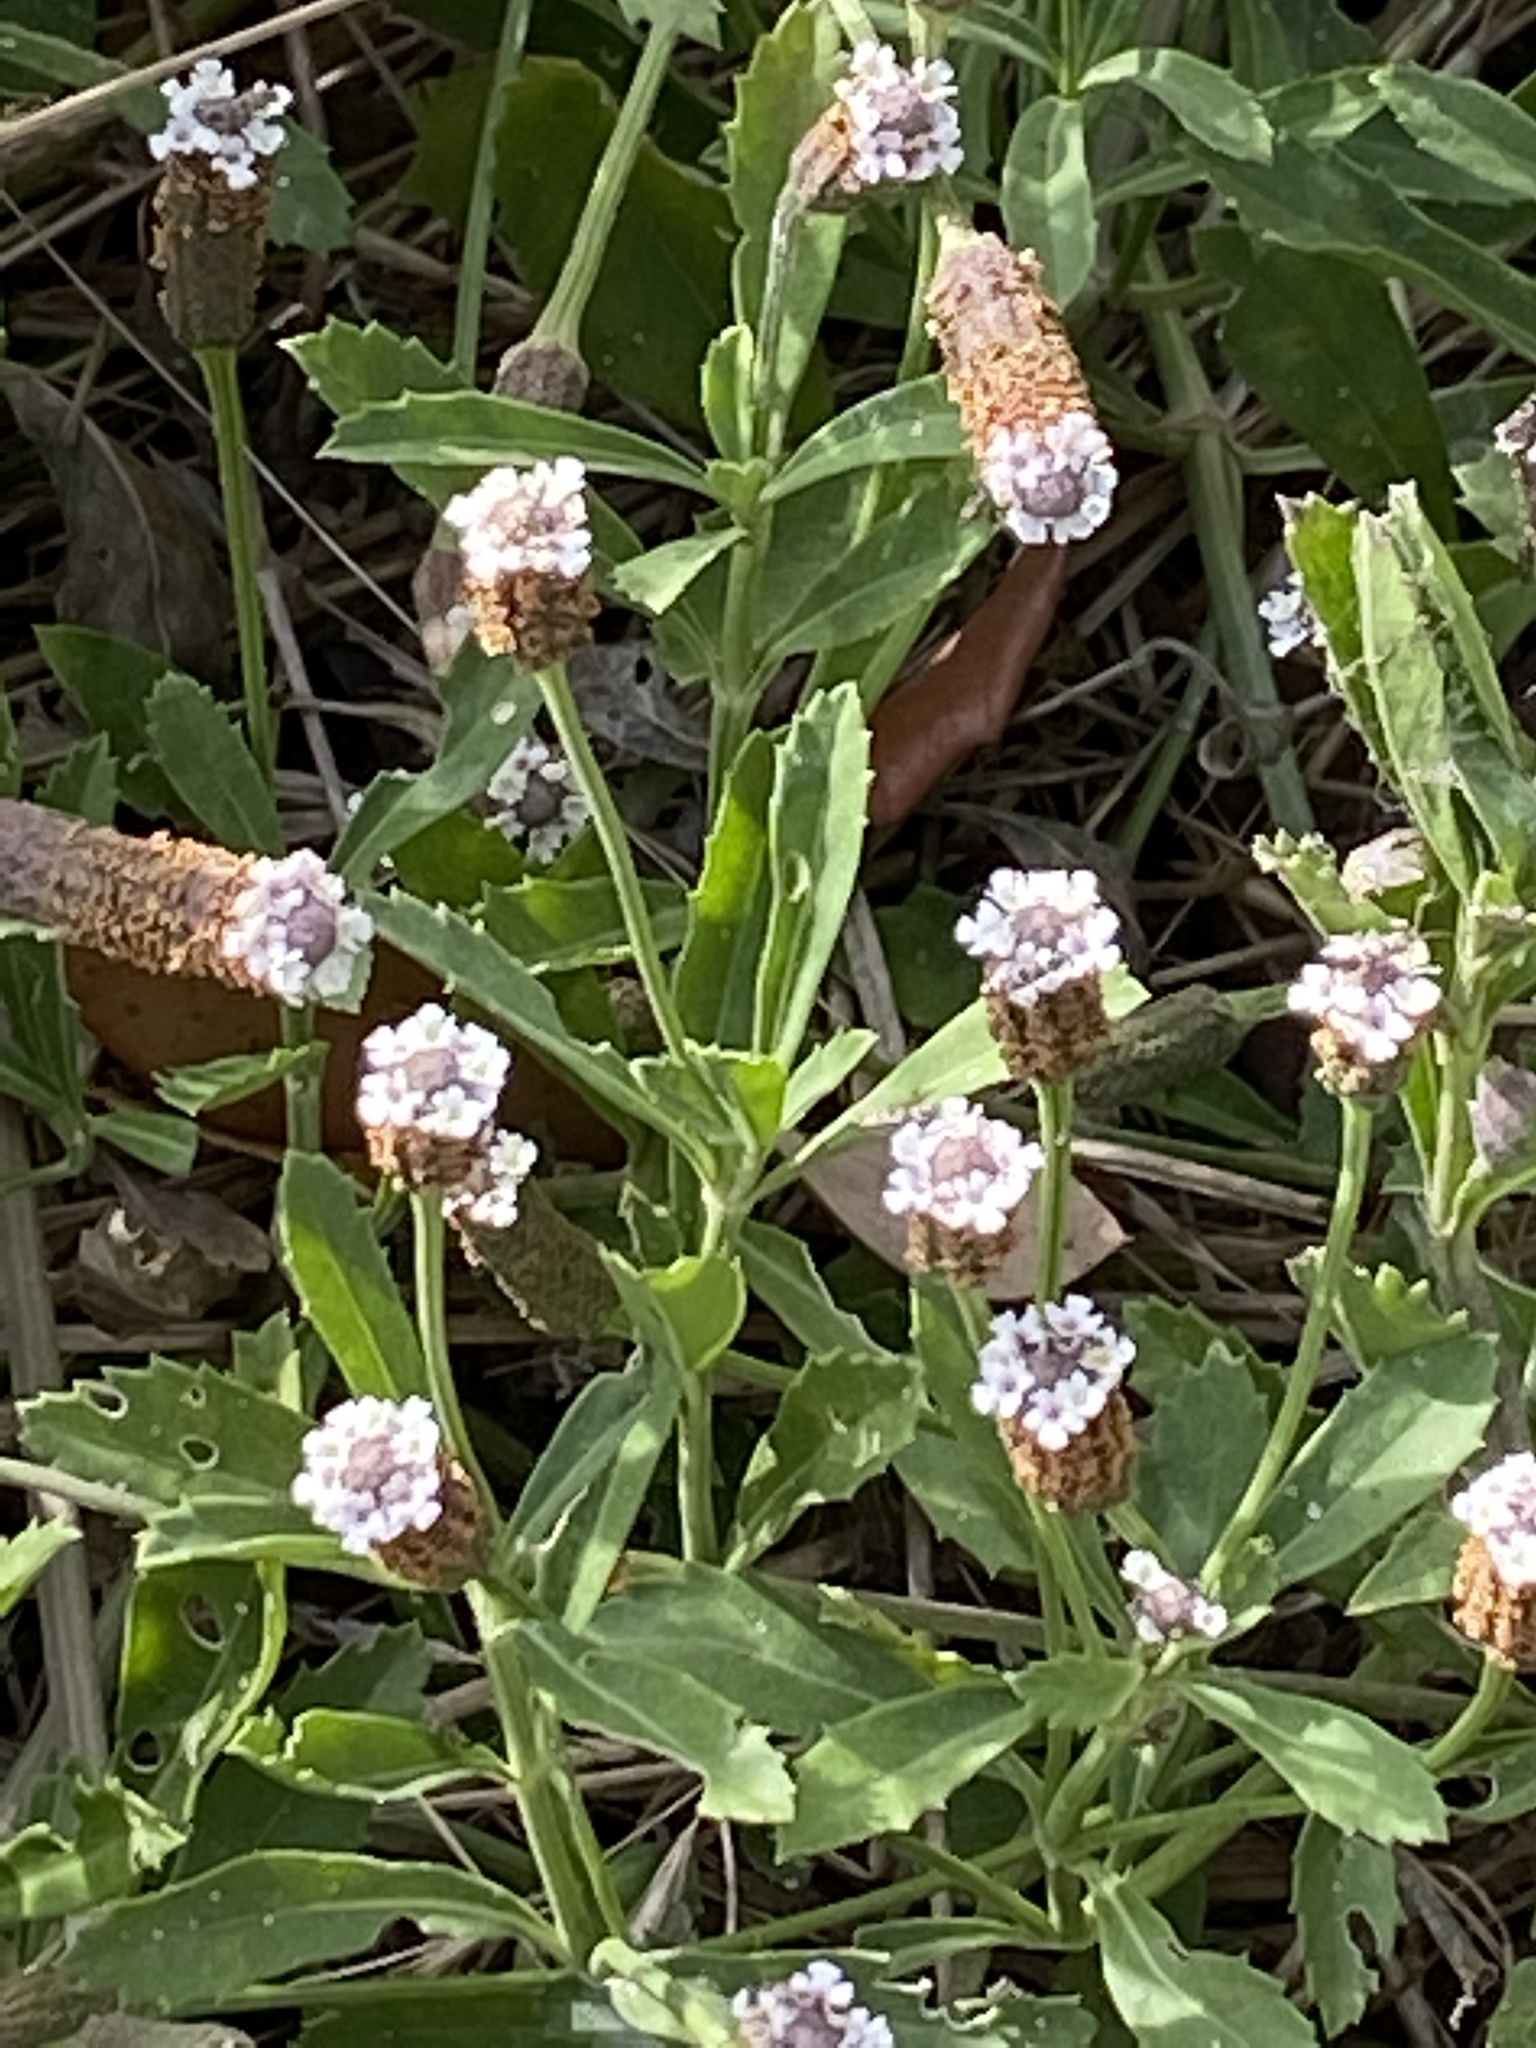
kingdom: Plantae
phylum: Tracheophyta
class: Magnoliopsida
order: Lamiales
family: Verbenaceae
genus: Phyla
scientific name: Phyla nodiflora
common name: Frogfruit
